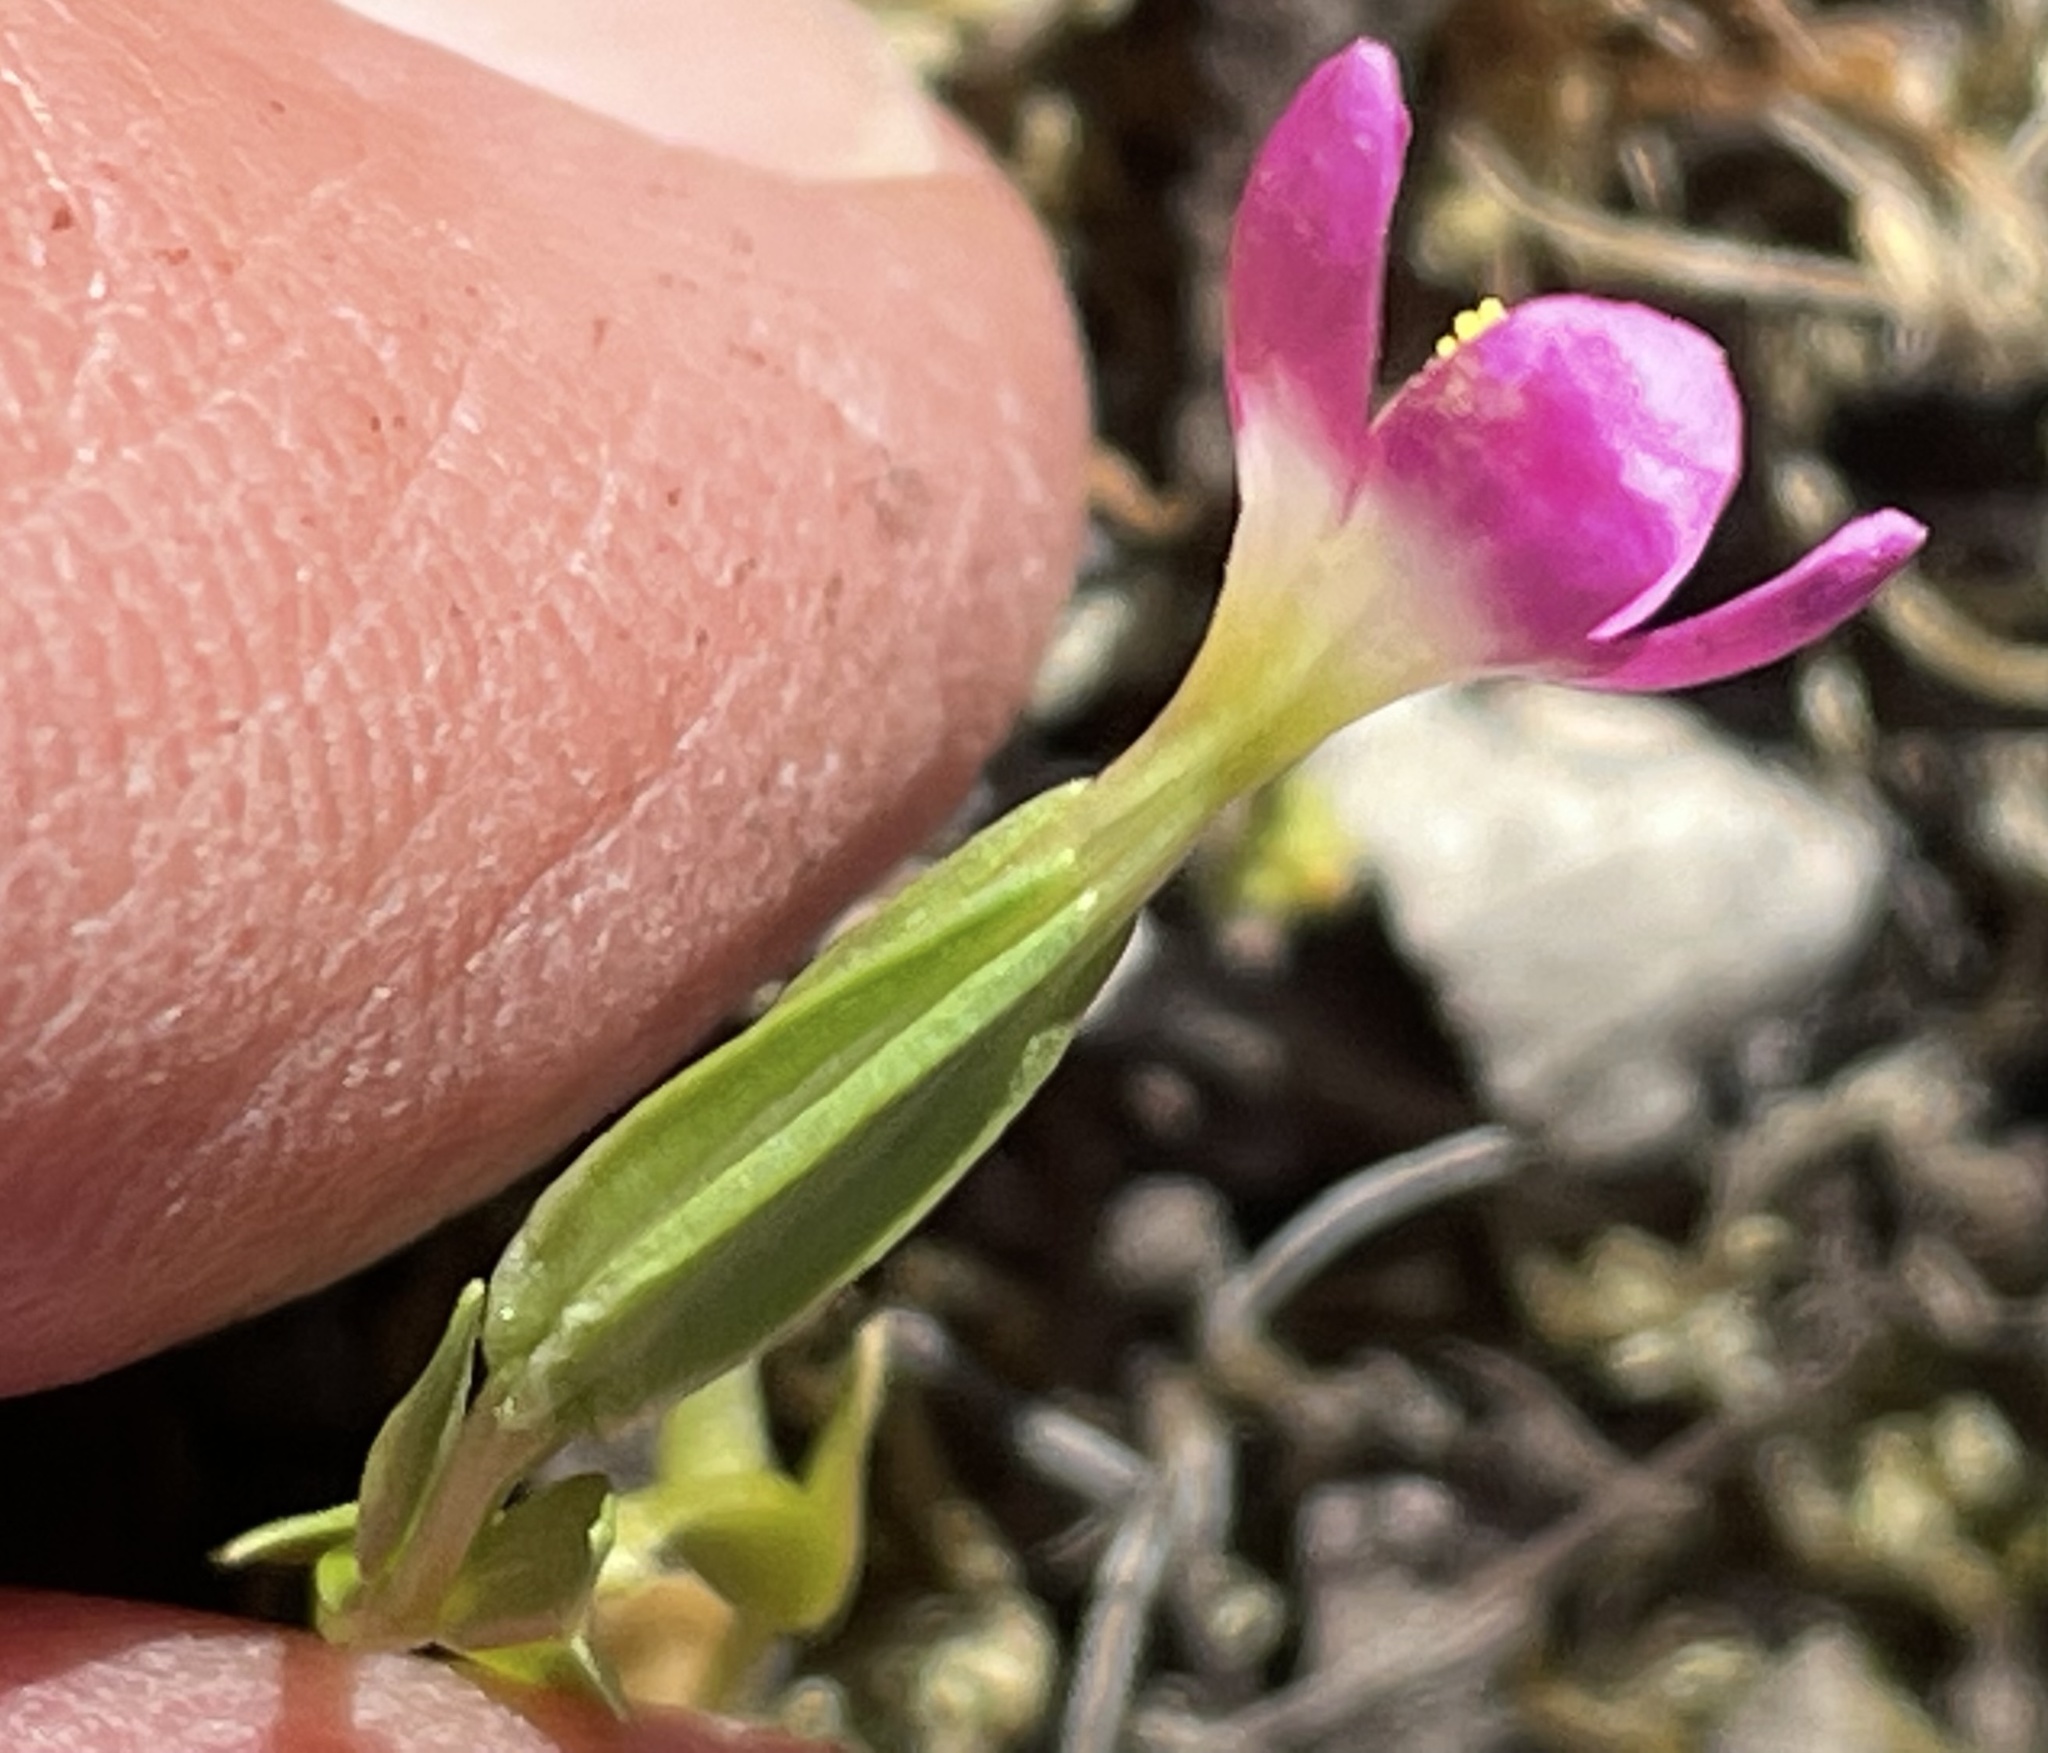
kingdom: Plantae
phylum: Tracheophyta
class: Magnoliopsida
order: Gentianales
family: Gentianaceae
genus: Zeltnera
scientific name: Zeltnera davyi
